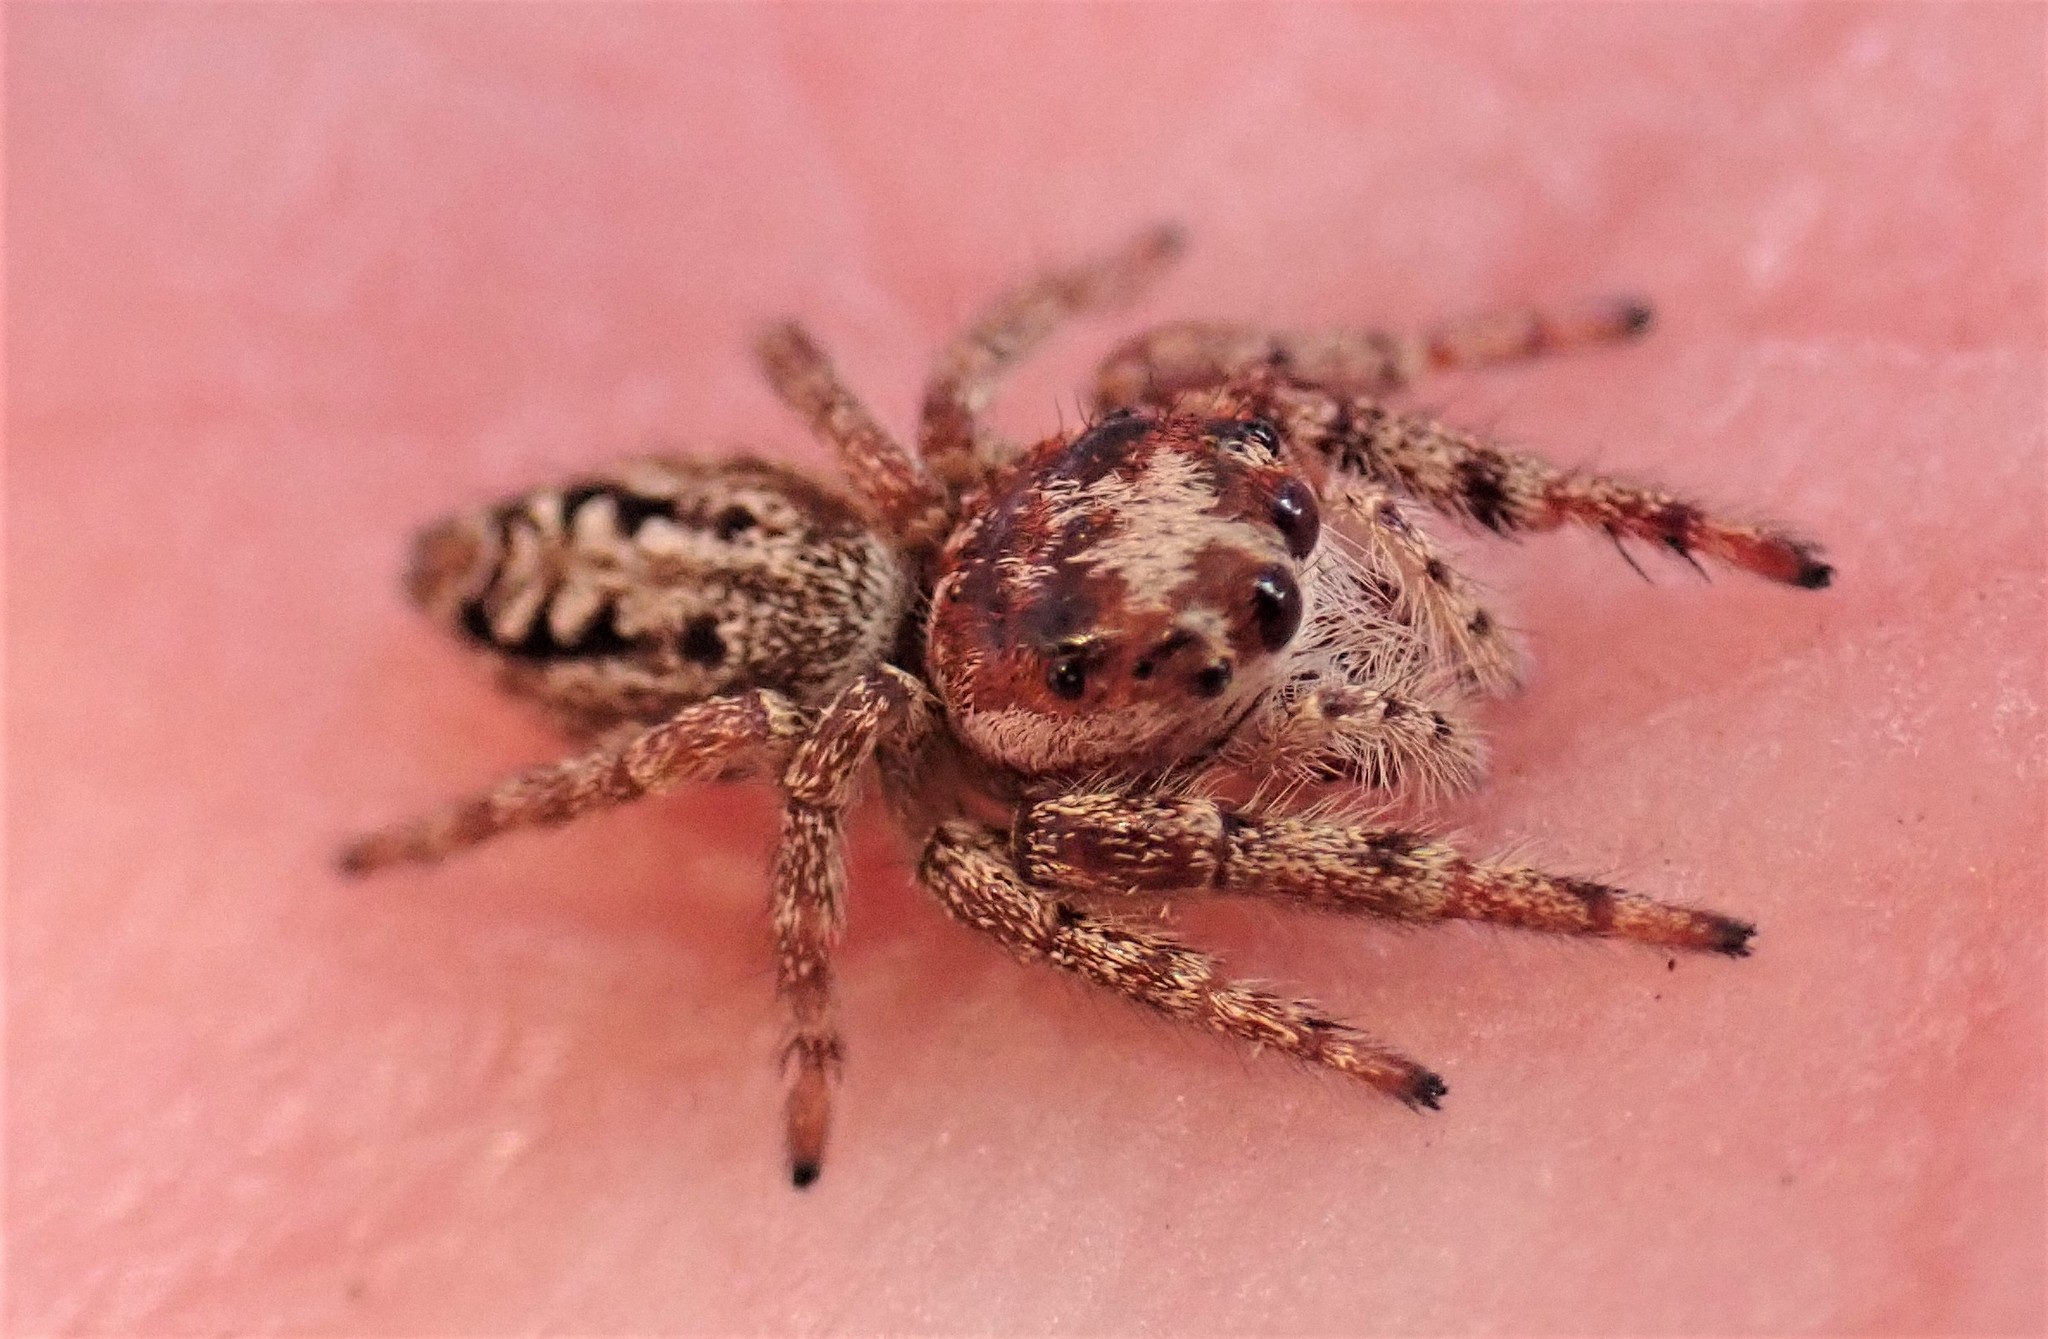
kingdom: Animalia
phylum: Arthropoda
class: Arachnida
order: Araneae
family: Salticidae
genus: Opisthoncus
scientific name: Opisthoncus serratofasciatus
